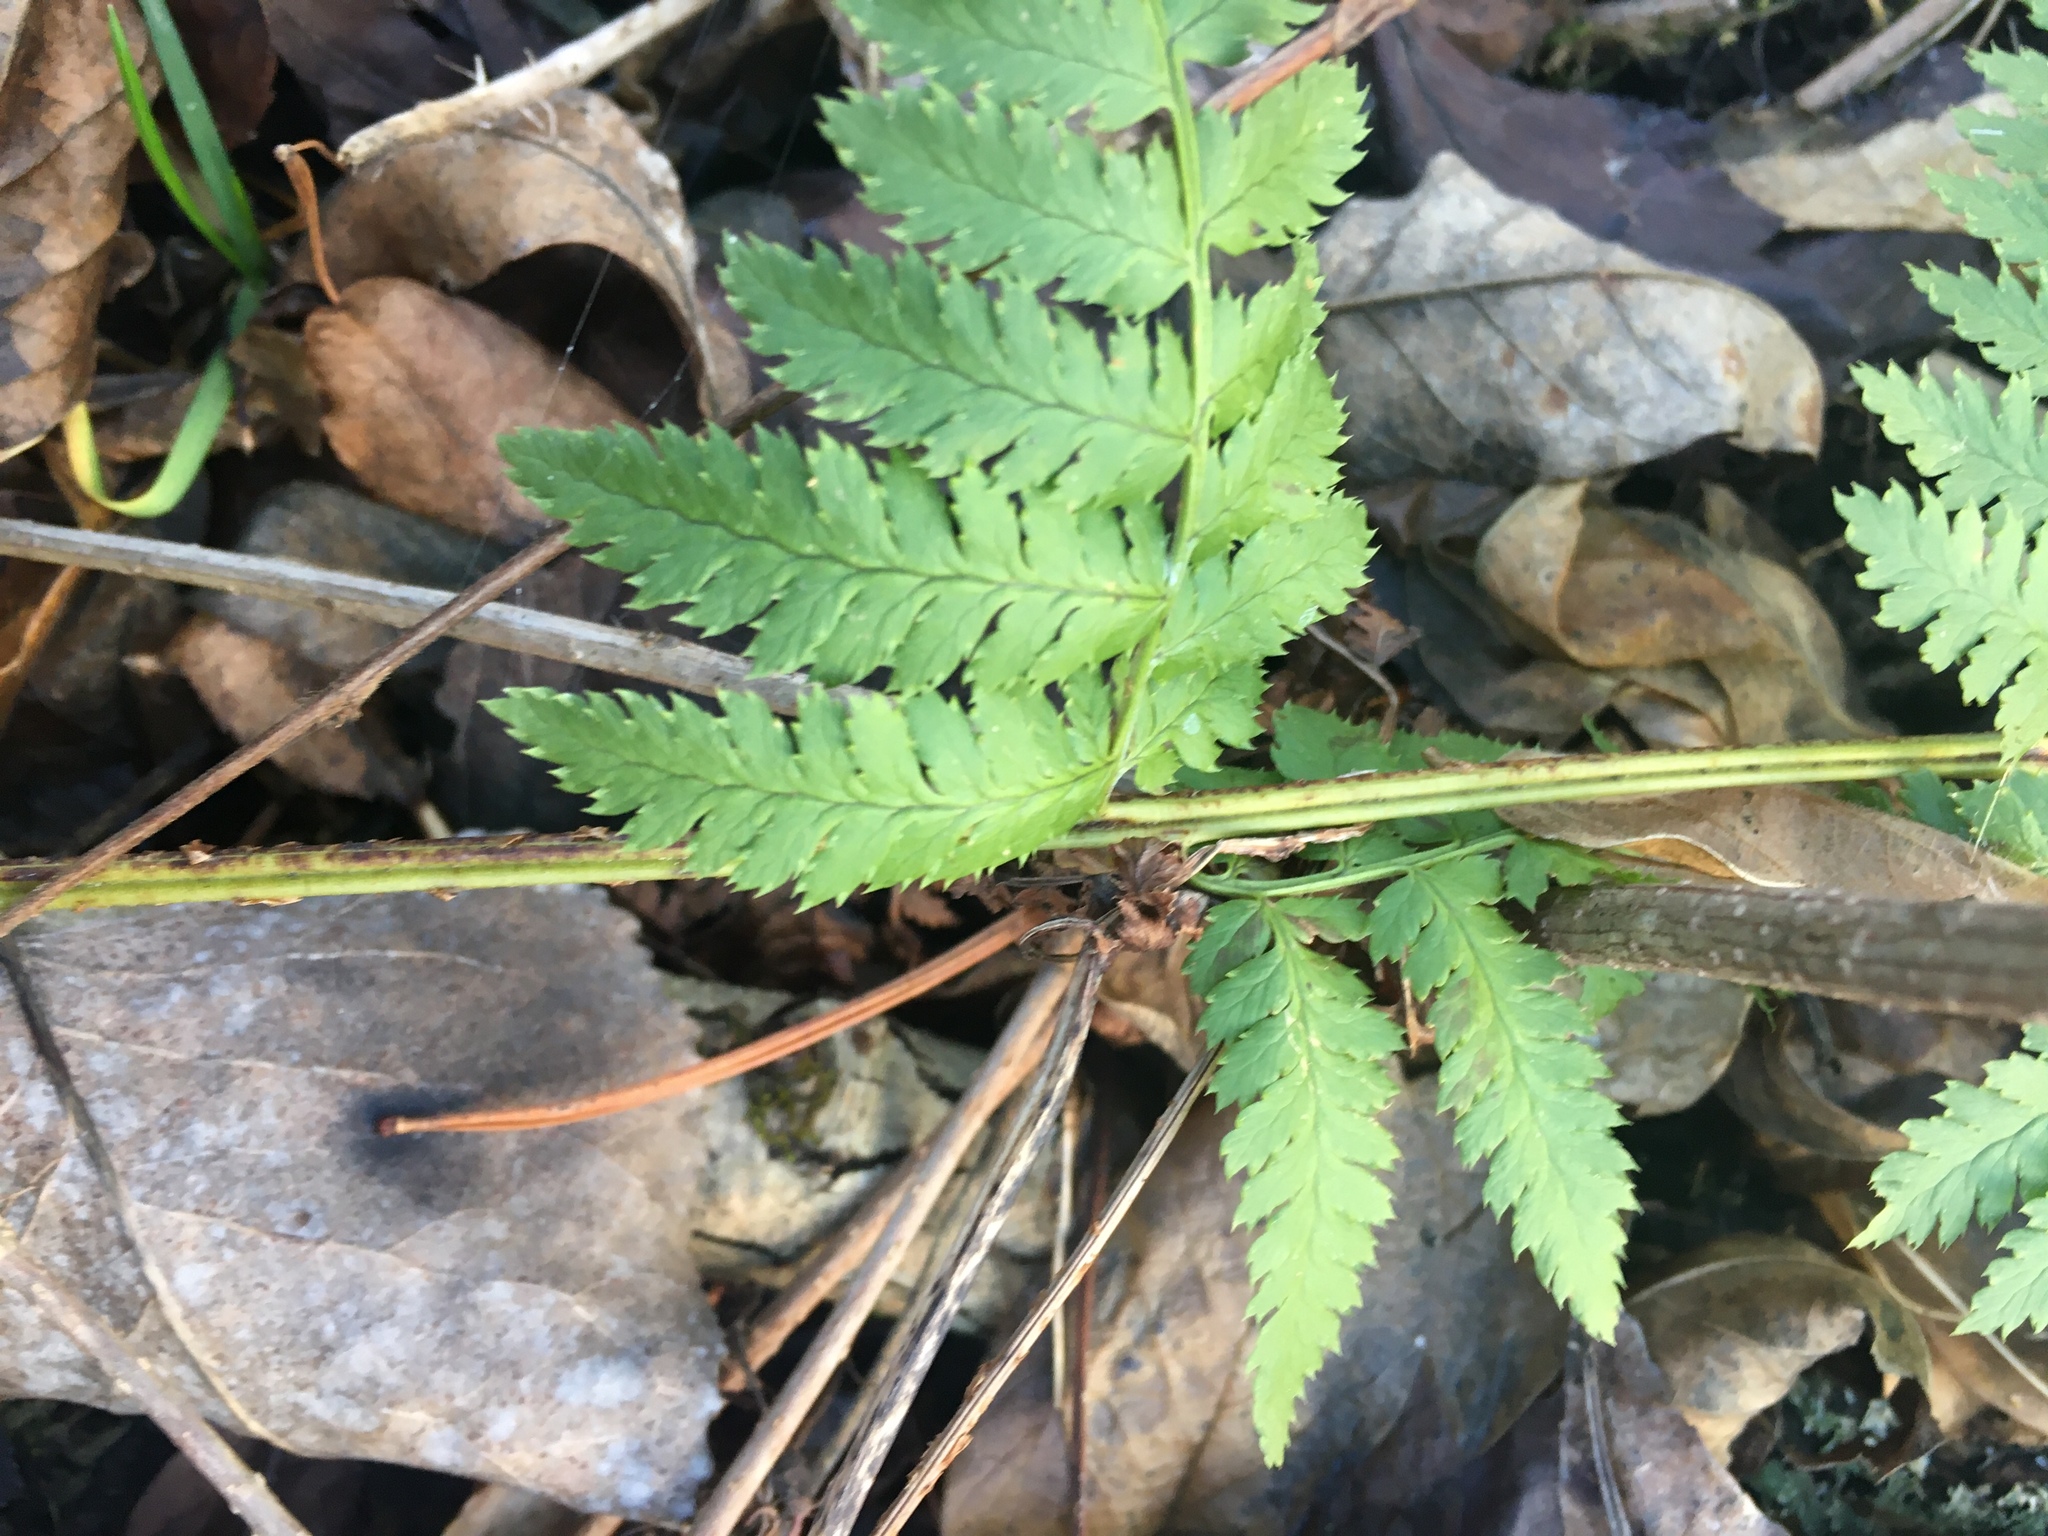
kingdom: Plantae
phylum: Tracheophyta
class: Polypodiopsida
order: Polypodiales
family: Dryopteridaceae
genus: Dryopteris
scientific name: Dryopteris intermedia
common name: Evergreen wood fern
